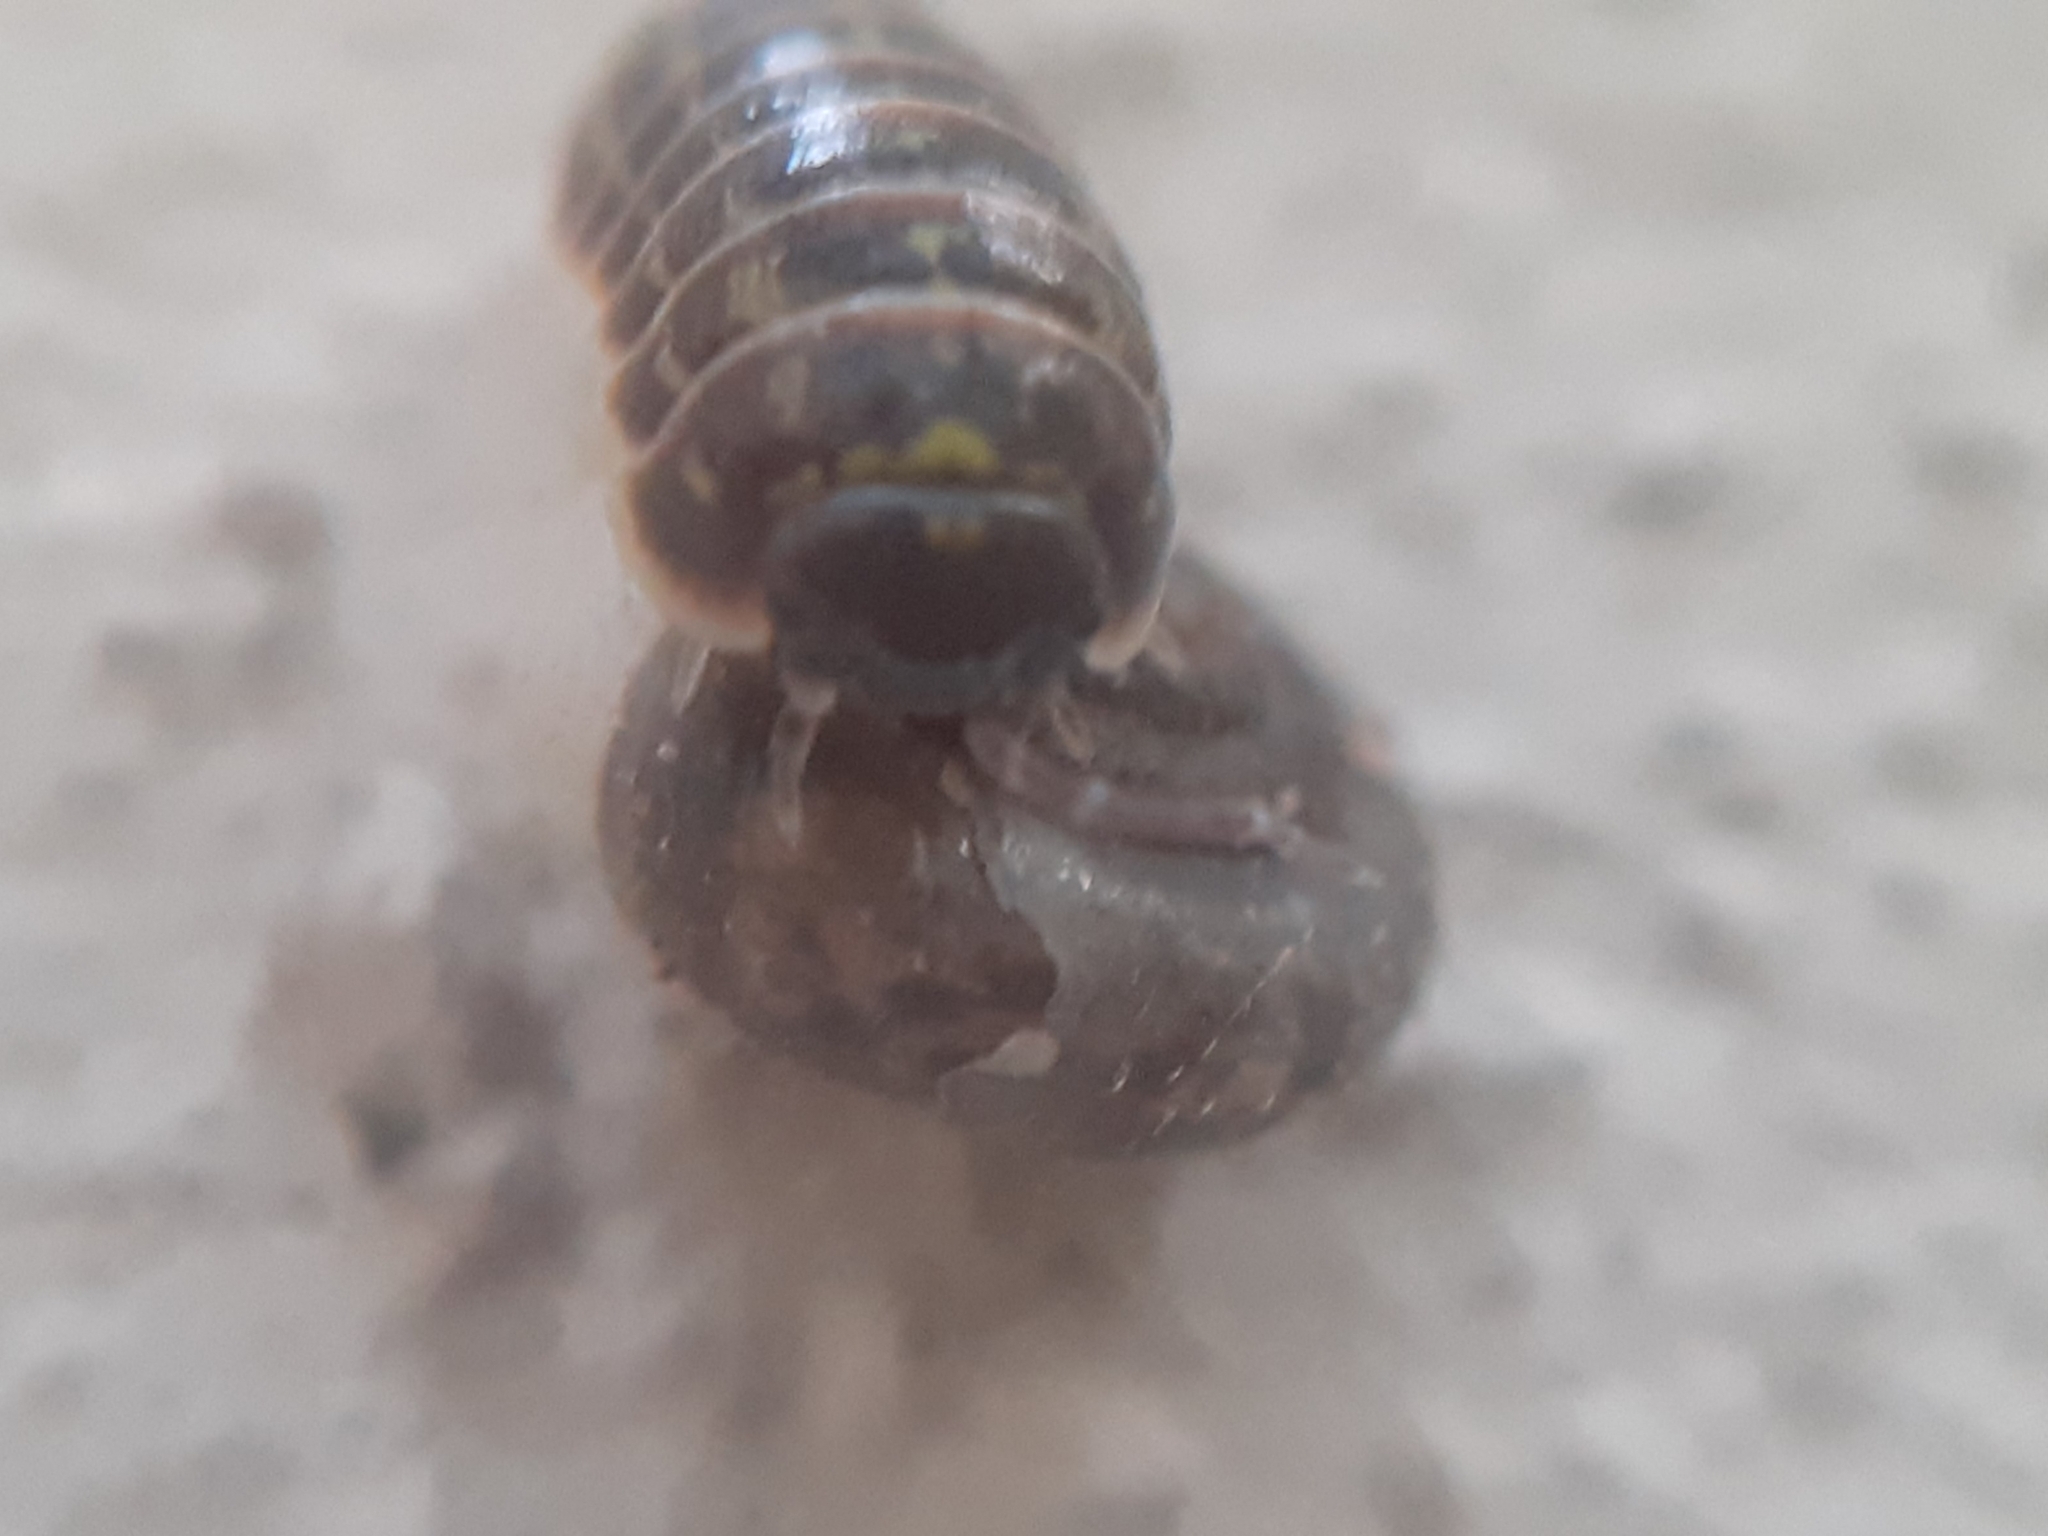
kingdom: Animalia
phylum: Arthropoda
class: Malacostraca
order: Isopoda
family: Armadillidiidae
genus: Armadillidium
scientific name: Armadillidium versicolor
